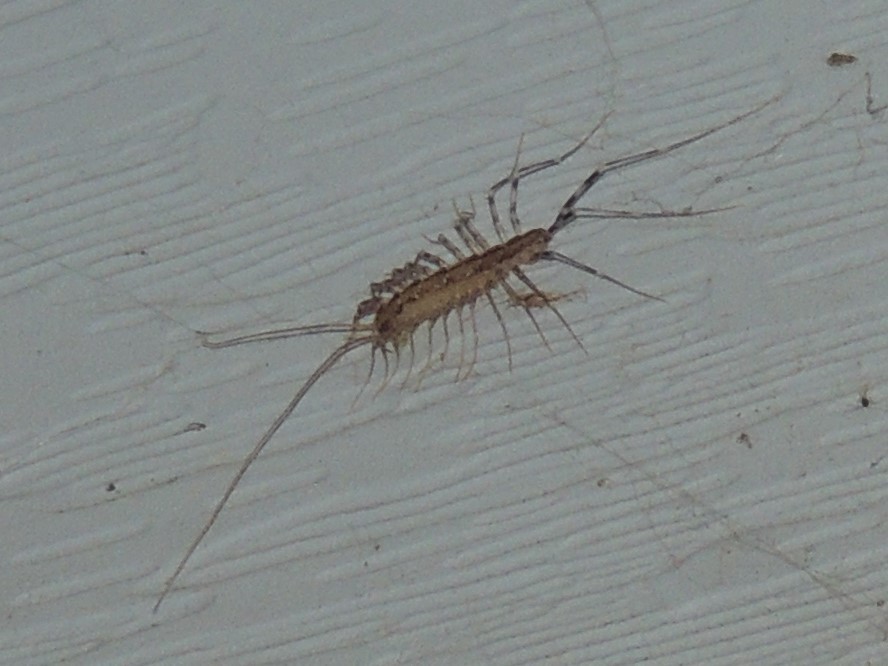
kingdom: Animalia
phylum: Arthropoda
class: Chilopoda
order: Scutigeromorpha
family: Scutigeridae
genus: Scutigera
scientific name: Scutigera coleoptrata
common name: House centipede
